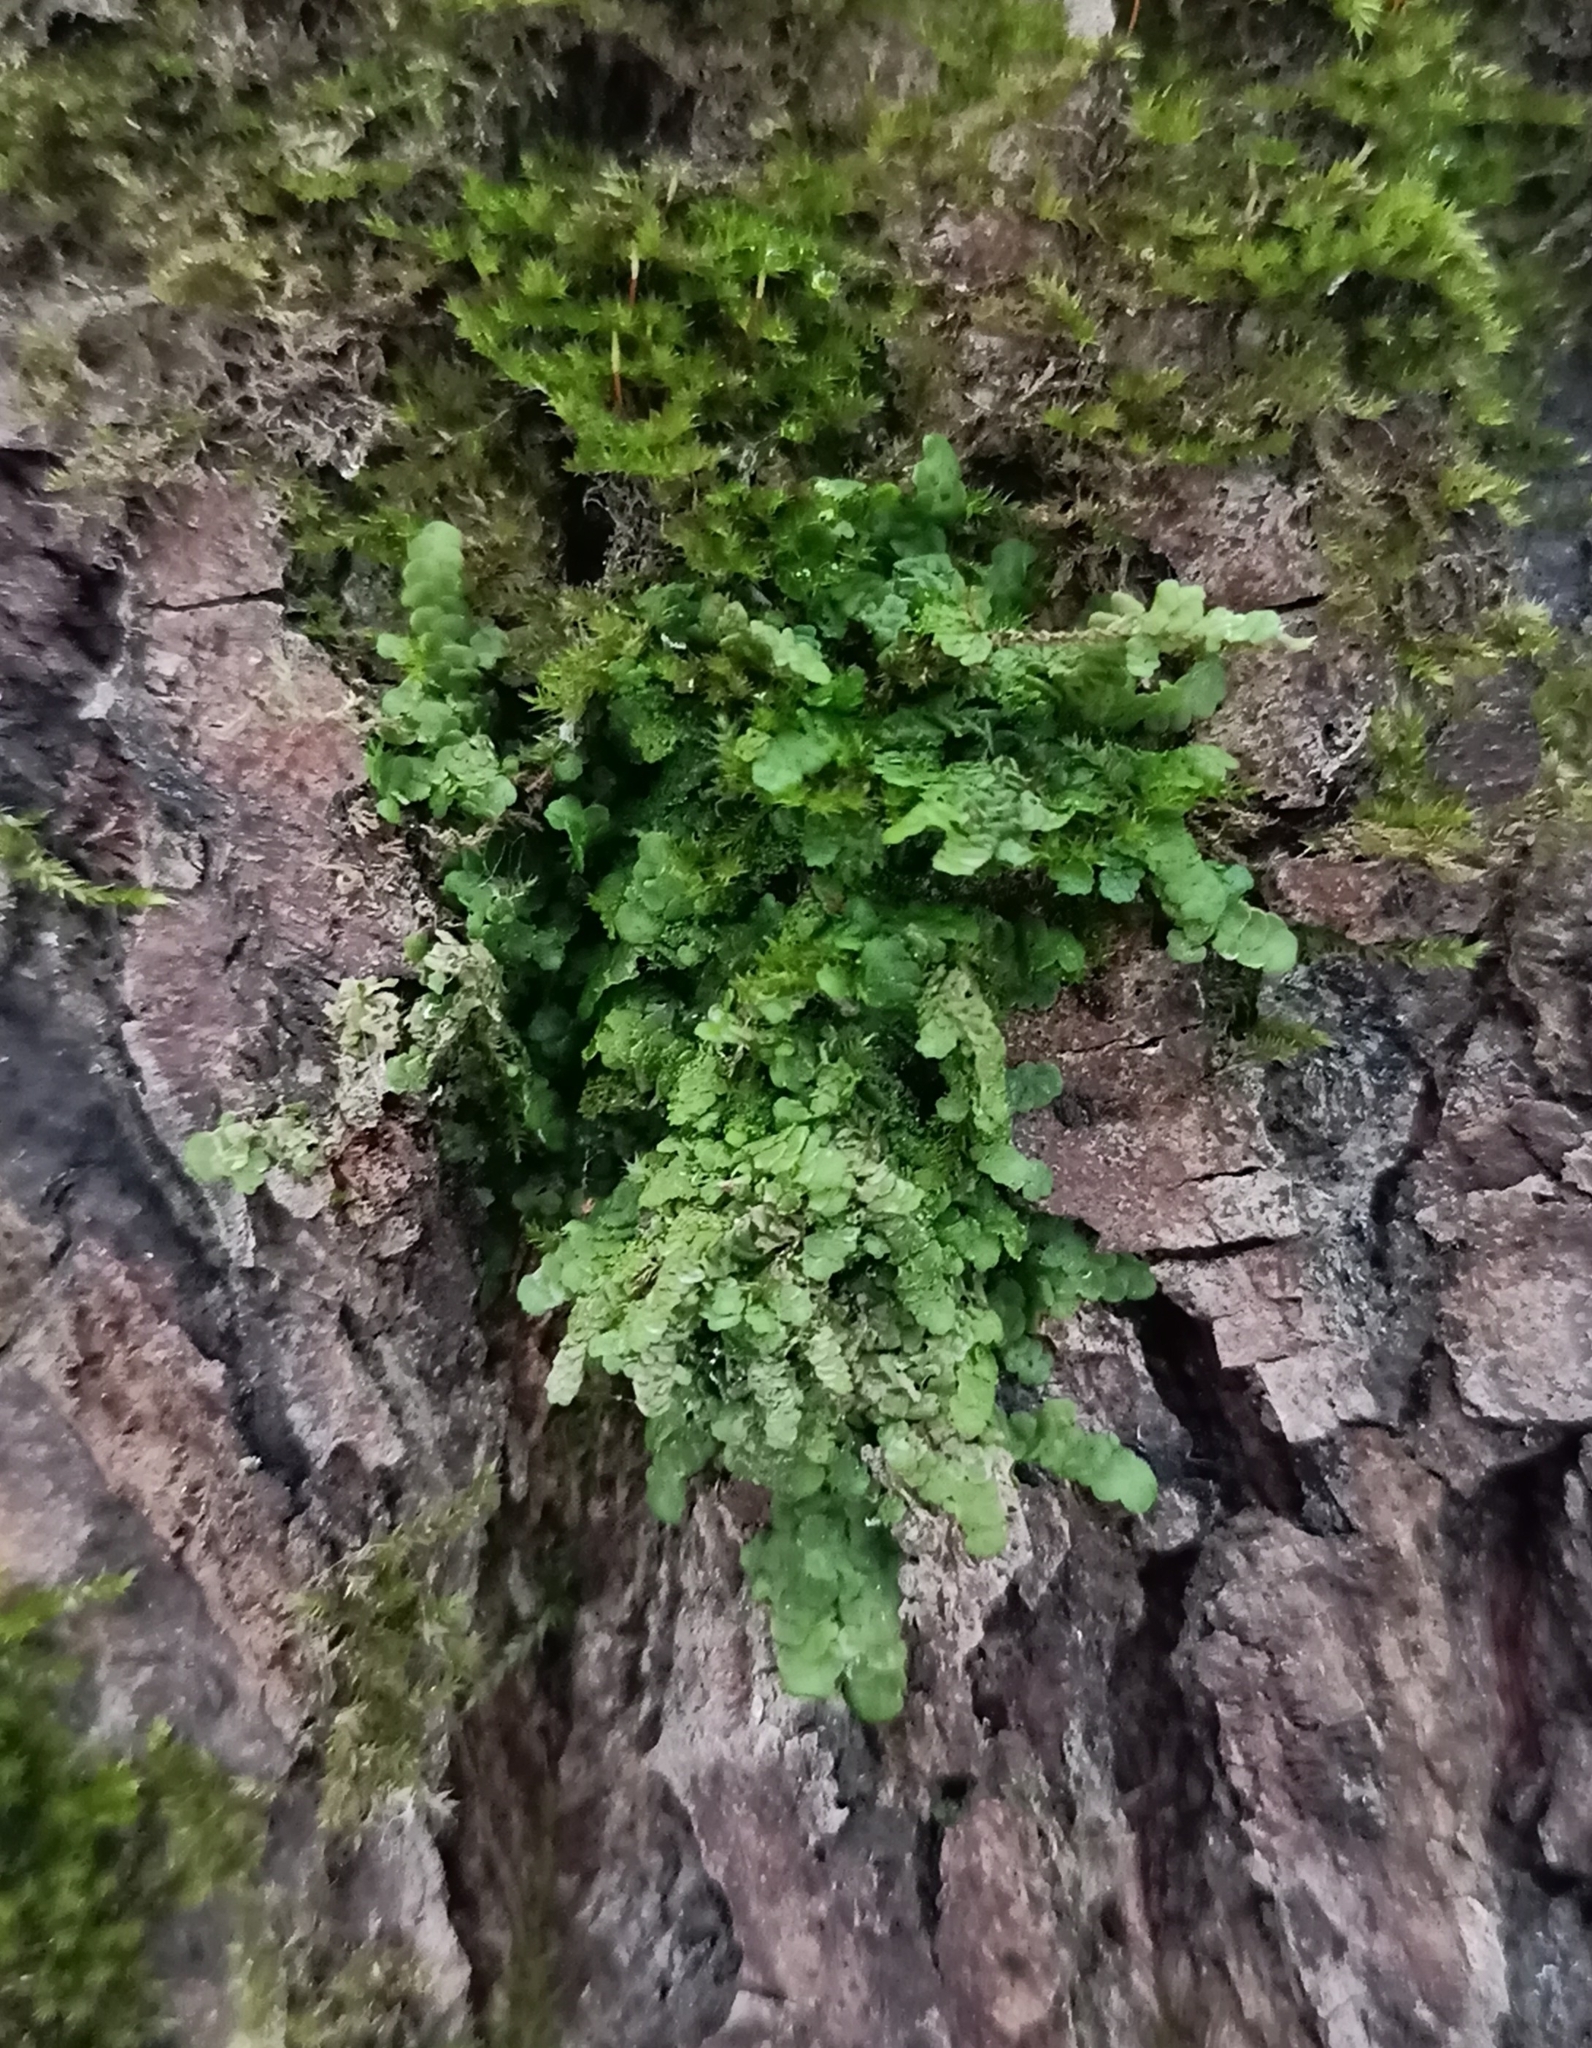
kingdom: Plantae
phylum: Marchantiophyta
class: Jungermanniopsida
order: Porellales
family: Radulaceae
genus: Radula
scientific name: Radula complanata
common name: Flat-leaved scalewort
